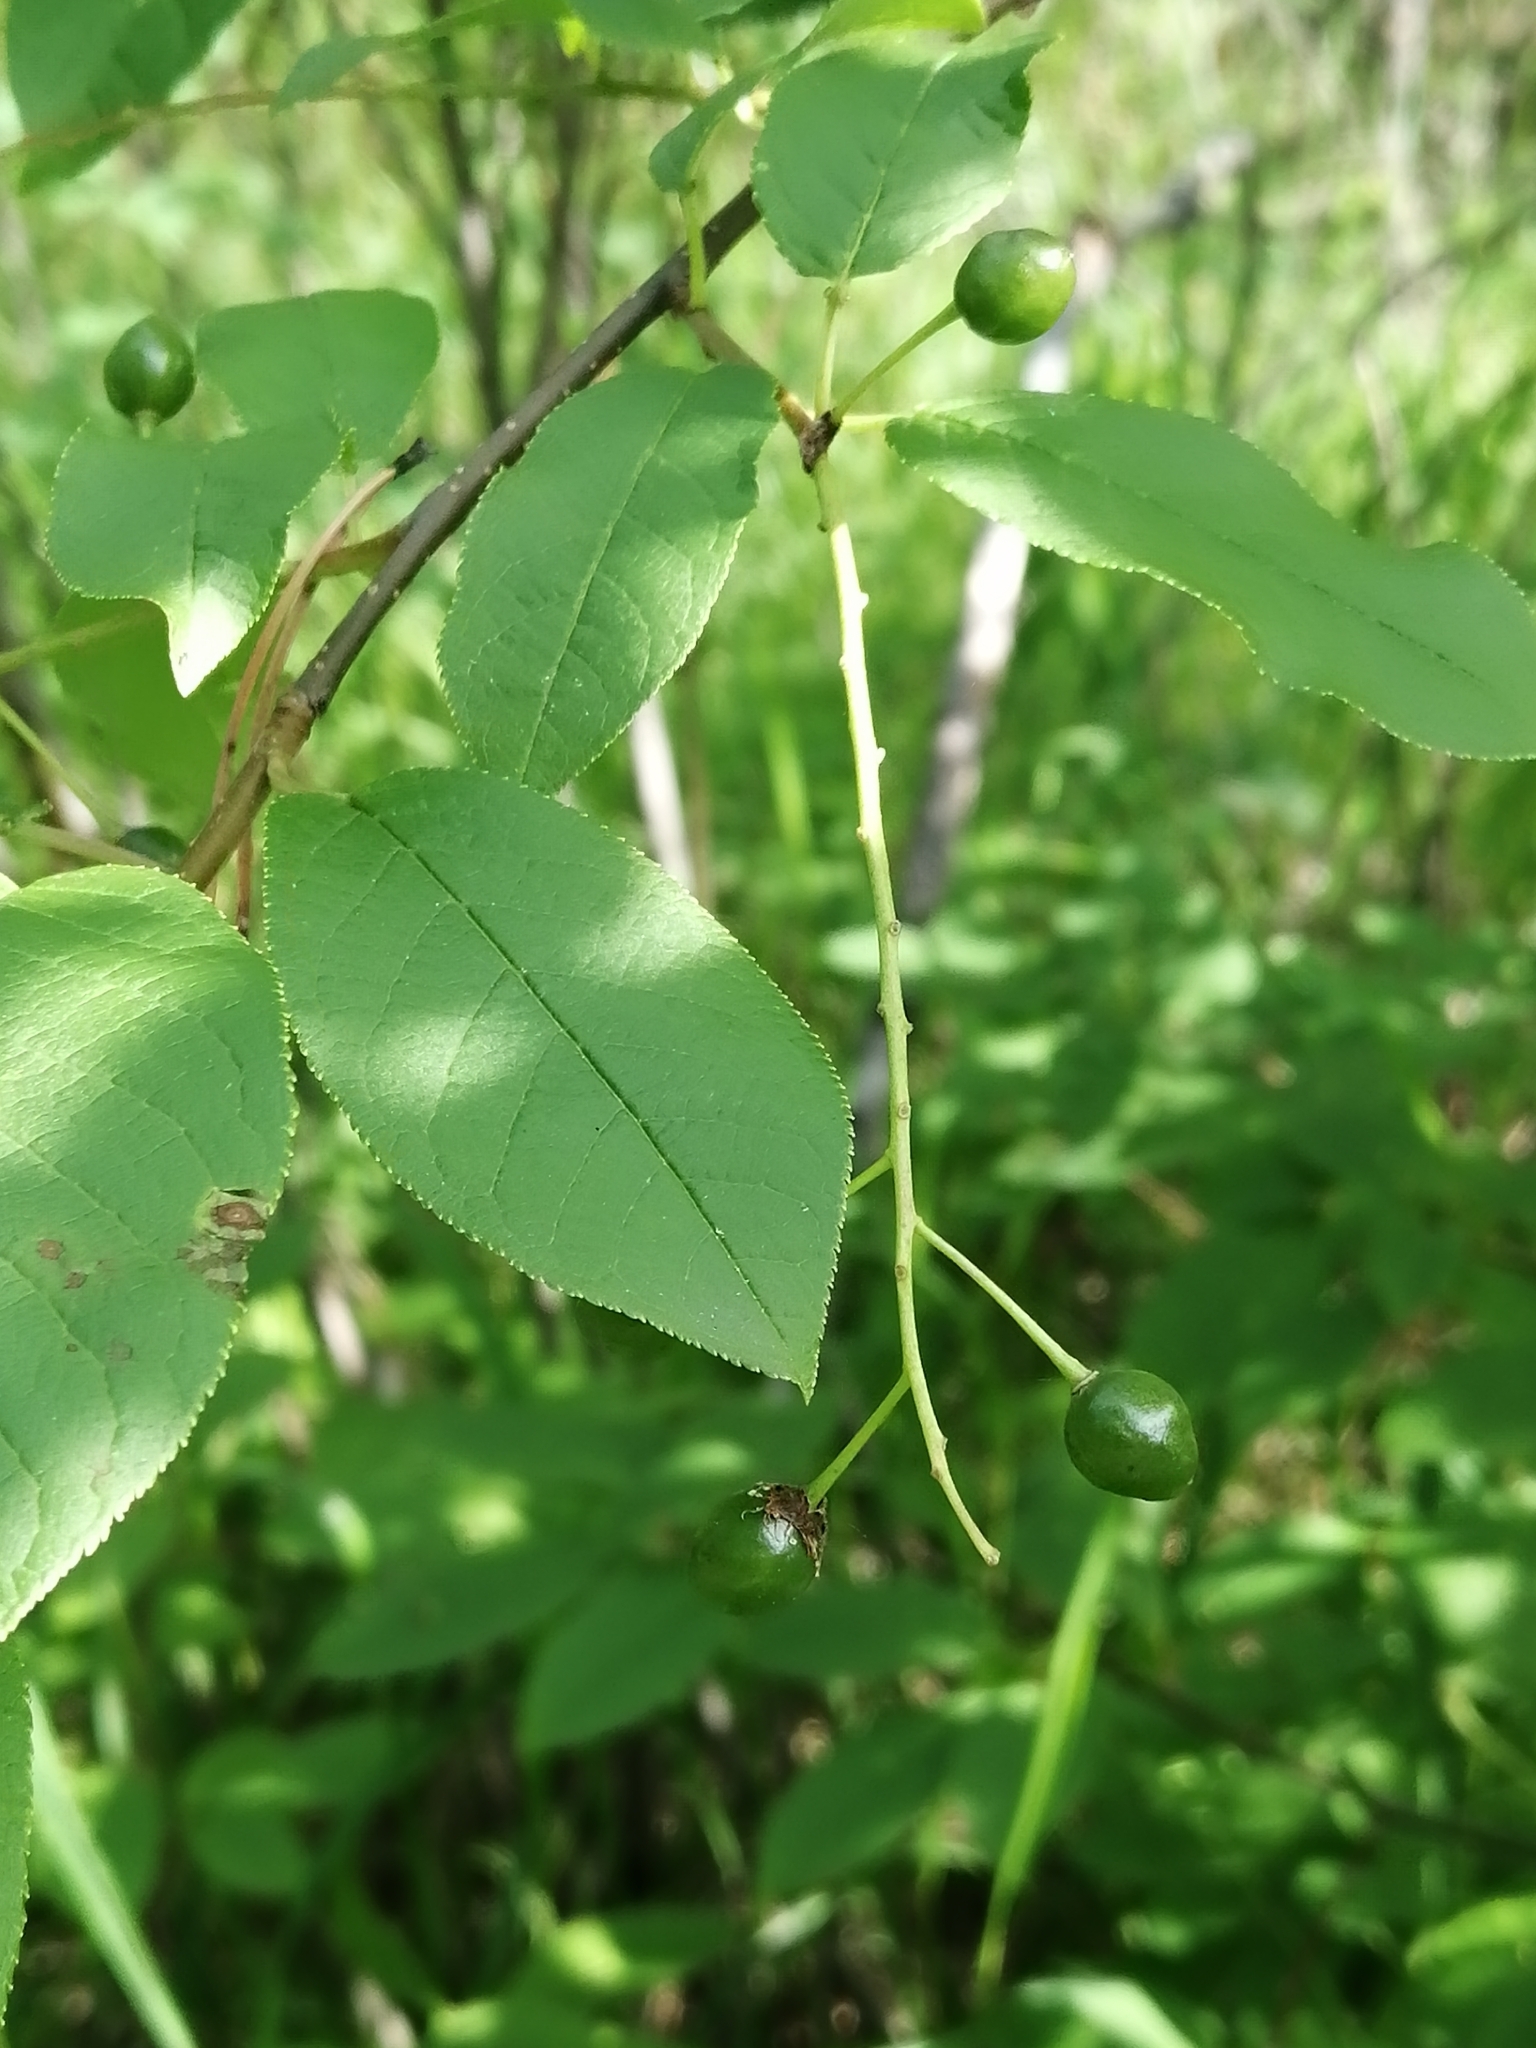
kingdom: Plantae
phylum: Tracheophyta
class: Magnoliopsida
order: Rosales
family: Rosaceae
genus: Prunus
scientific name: Prunus padus
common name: Bird cherry
